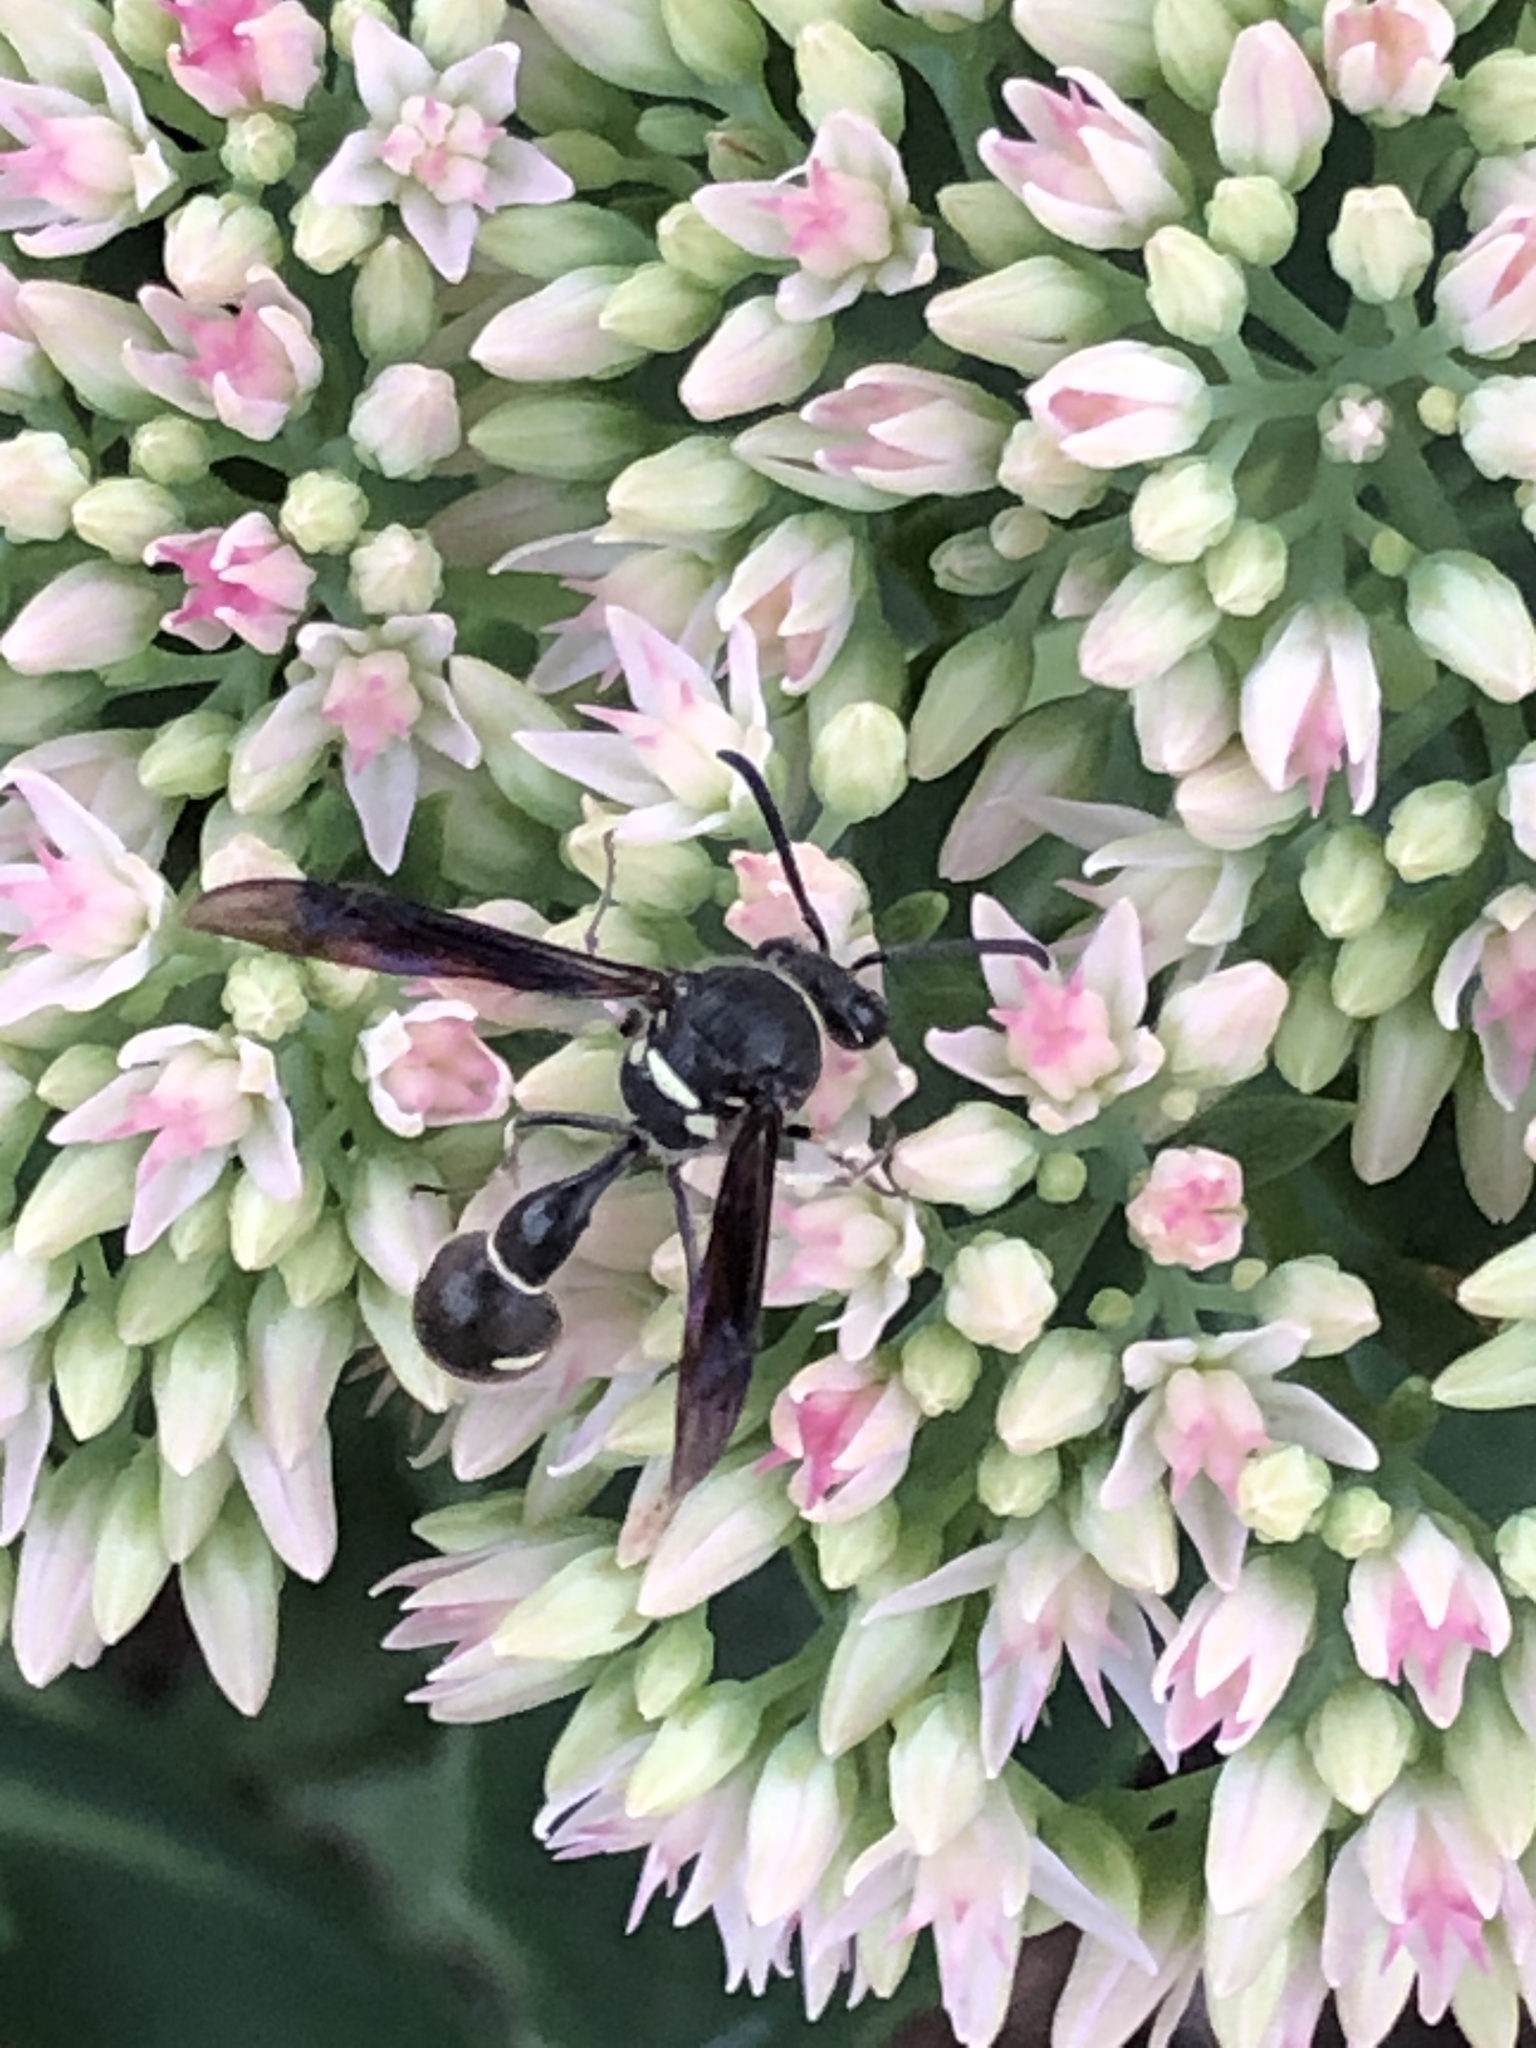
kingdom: Animalia
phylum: Arthropoda
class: Insecta
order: Hymenoptera
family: Vespidae
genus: Eumenes
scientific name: Eumenes fraternus
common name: Fraternal potter wasp
